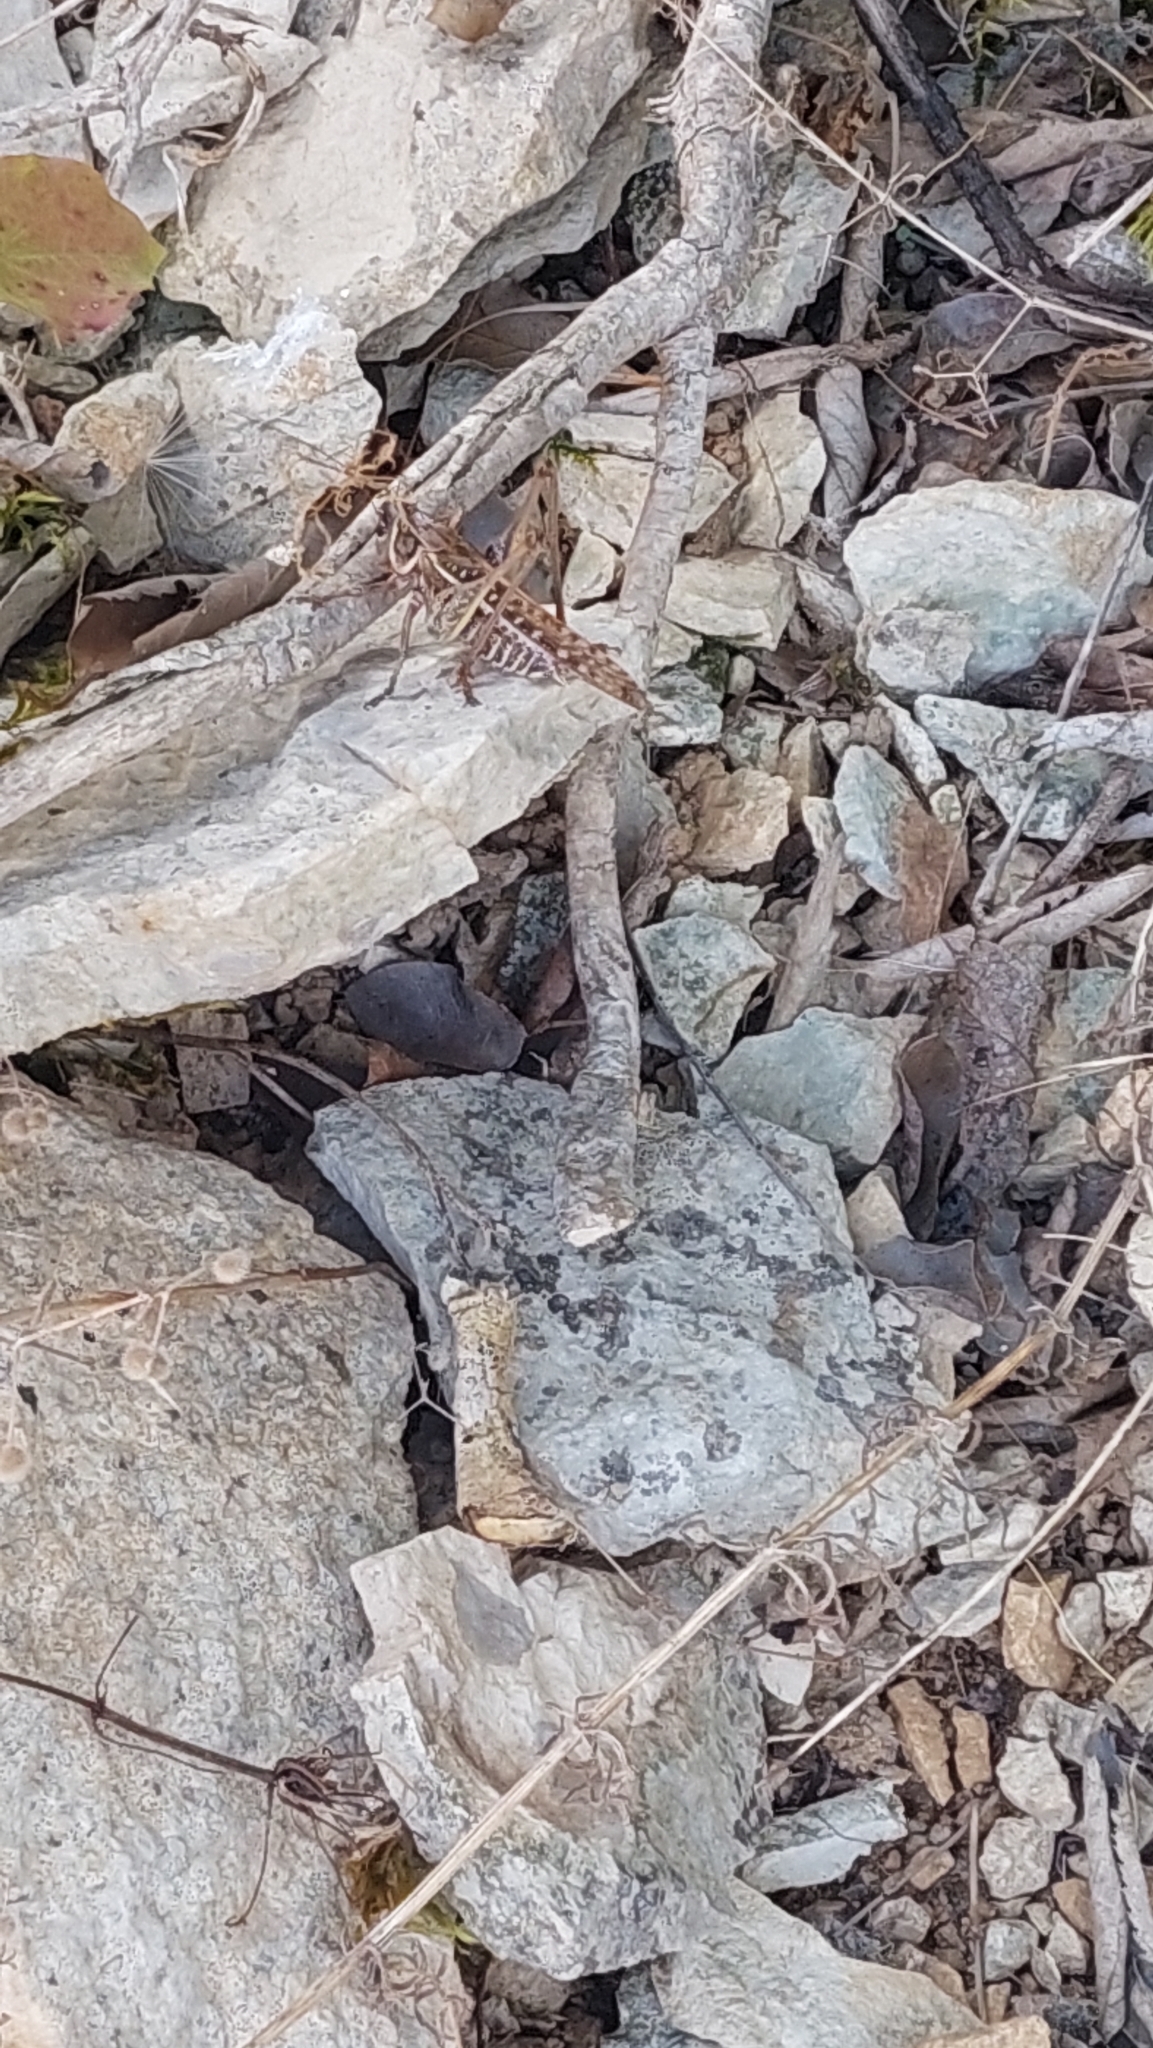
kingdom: Animalia
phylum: Arthropoda
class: Insecta
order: Orthoptera
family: Tettigoniidae
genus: Decticus
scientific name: Decticus albifrons
